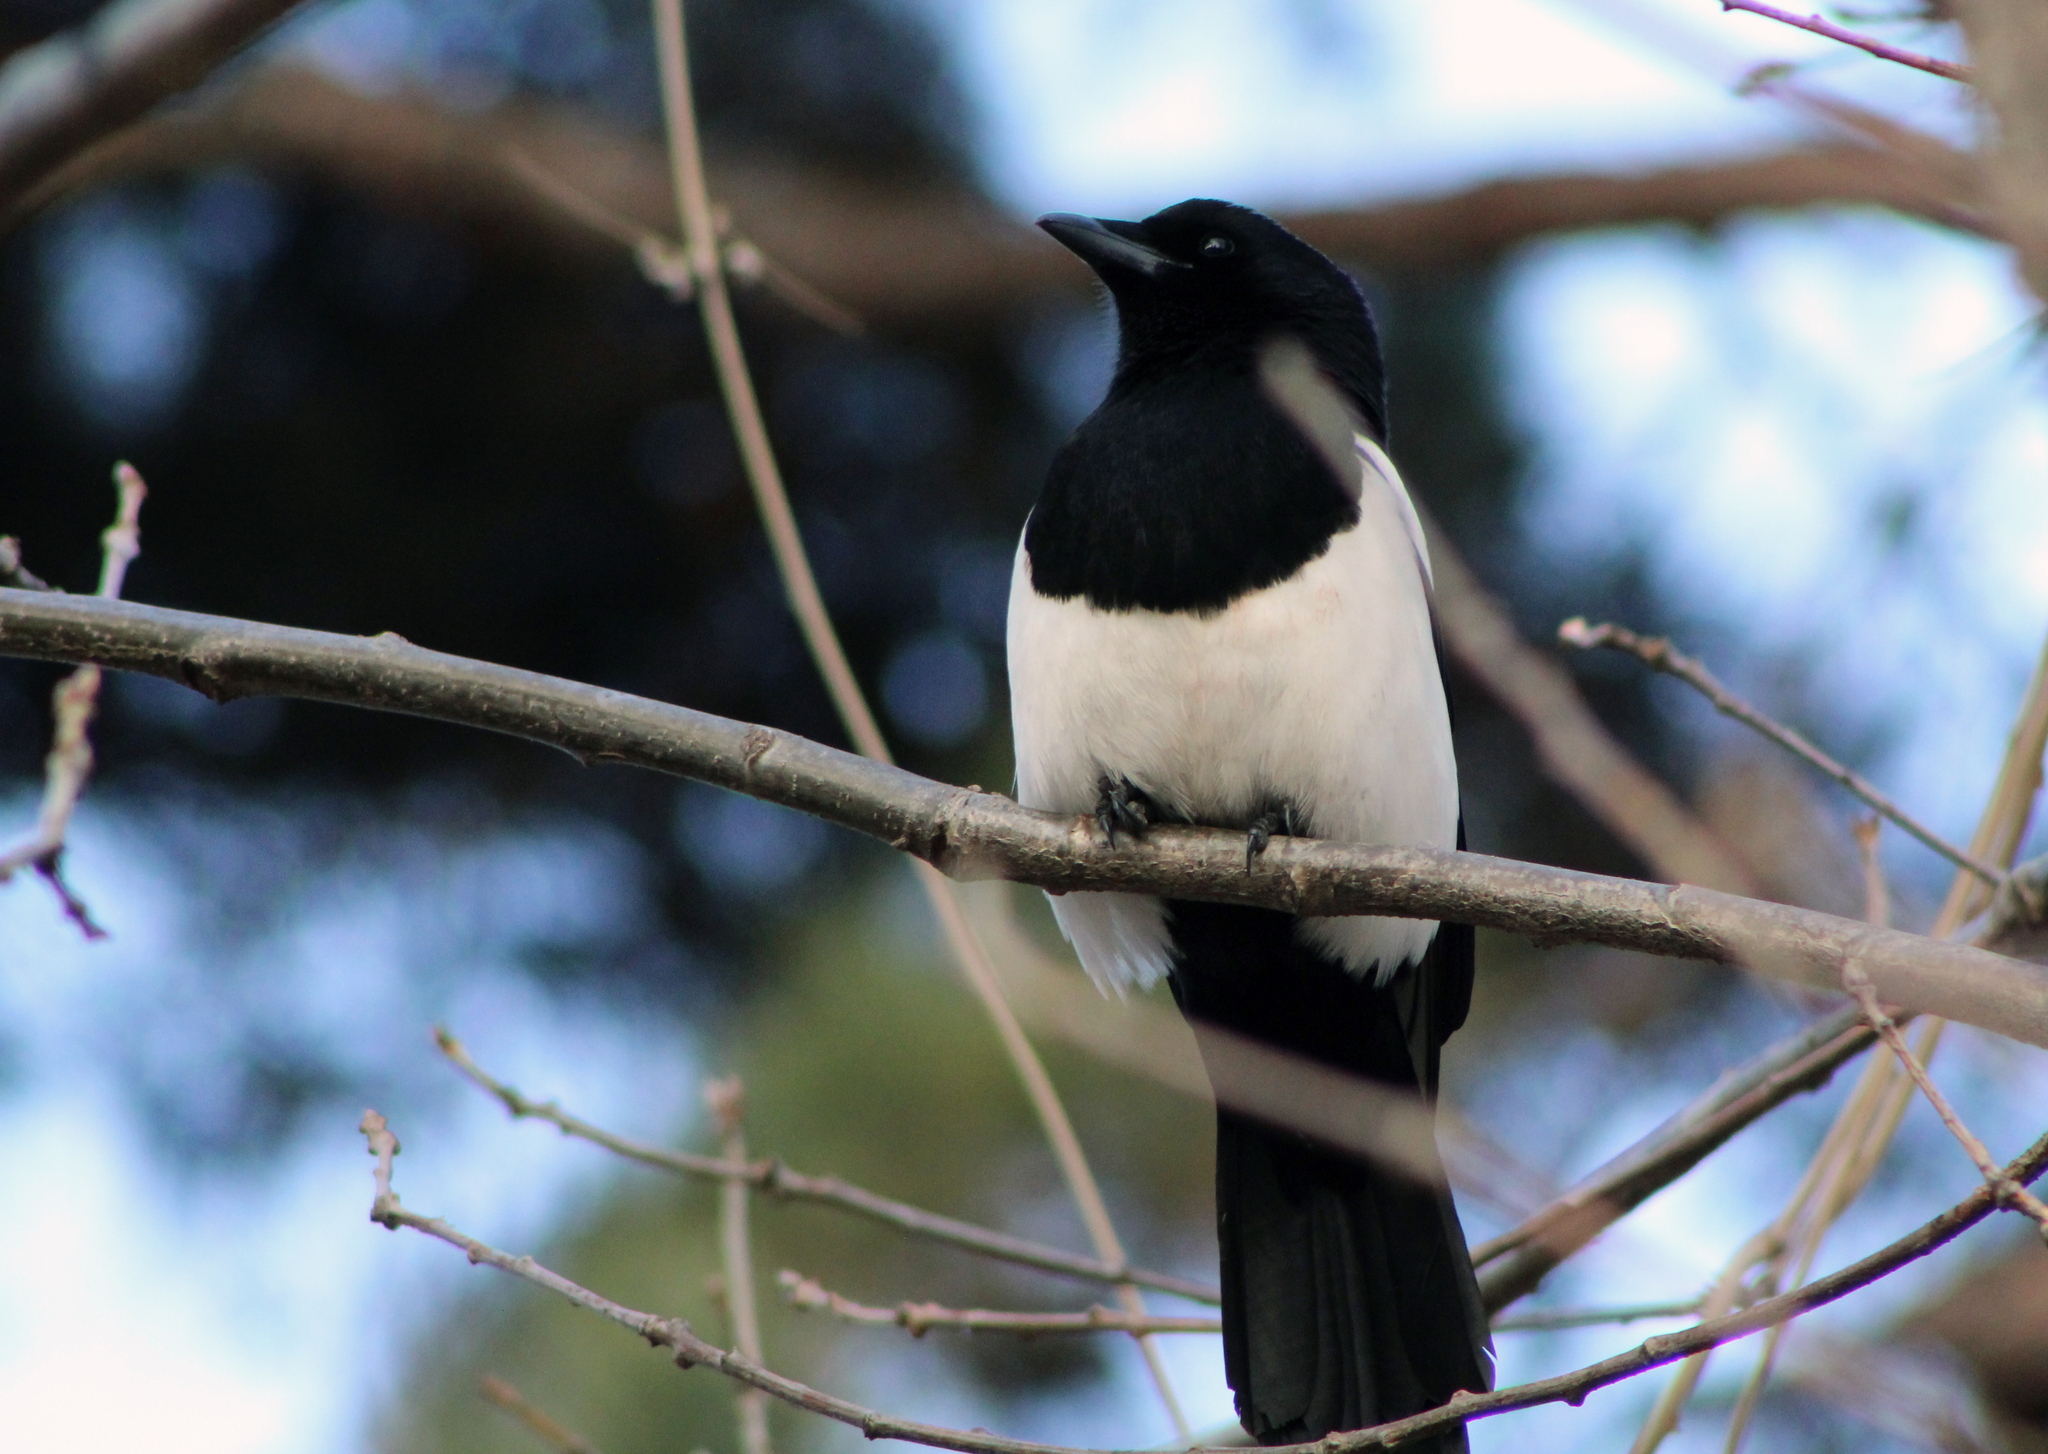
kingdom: Animalia
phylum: Chordata
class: Aves
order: Passeriformes
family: Corvidae
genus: Pica
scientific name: Pica serica
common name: Oriental magpie
